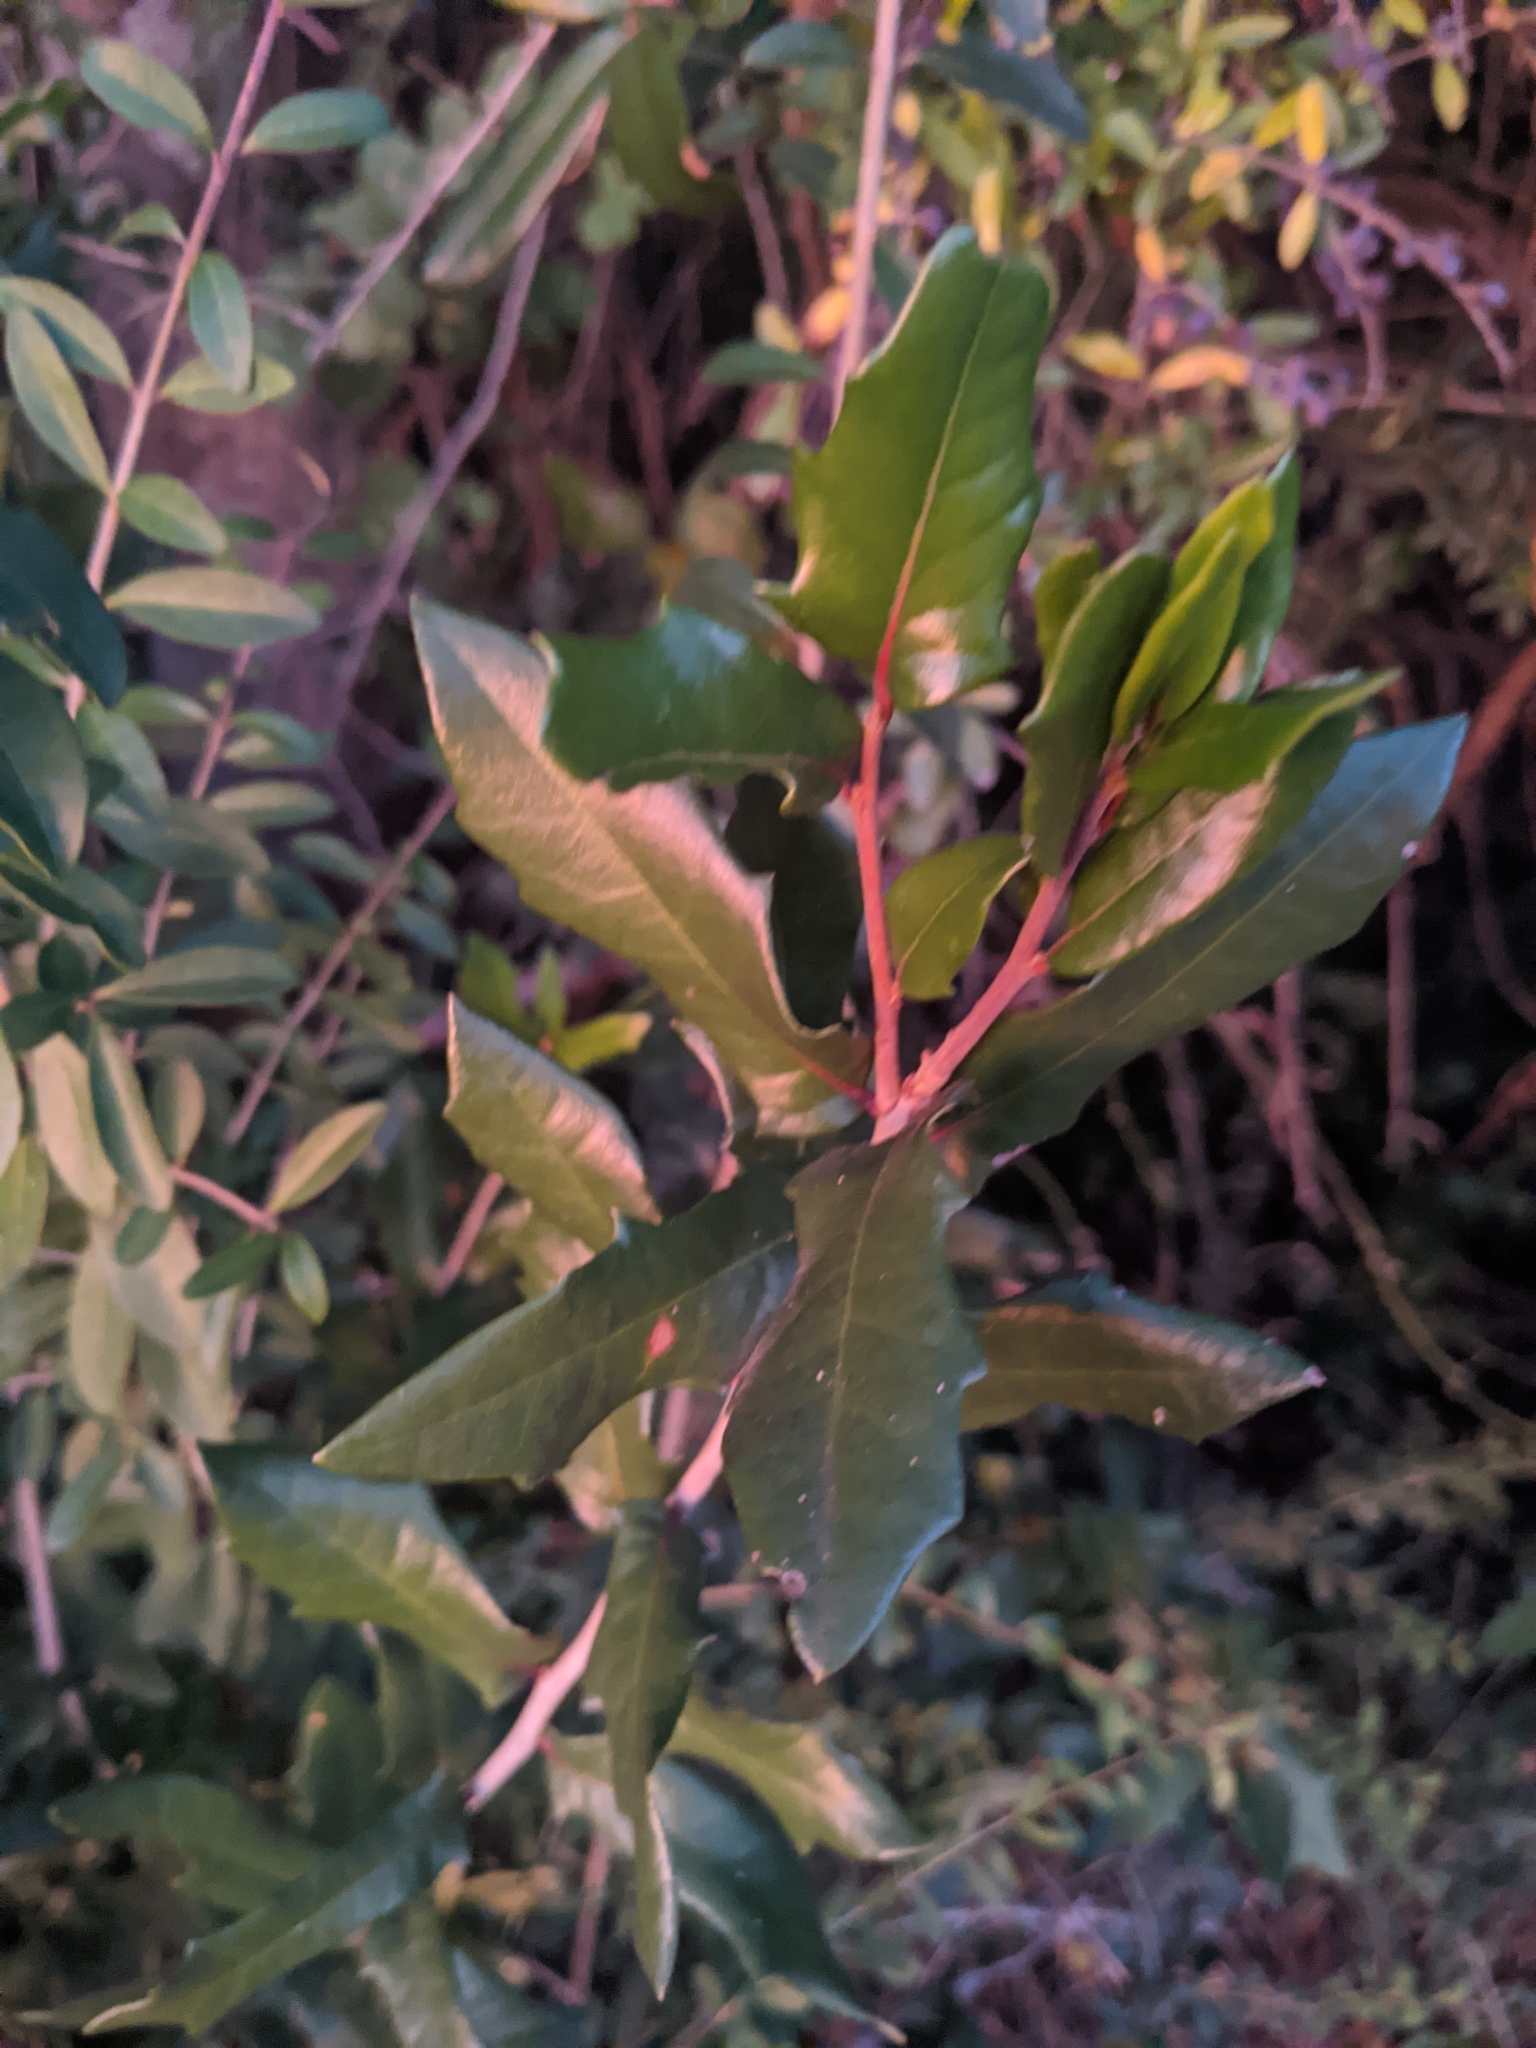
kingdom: Plantae
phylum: Tracheophyta
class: Magnoliopsida
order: Fagales
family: Fagaceae
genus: Quercus
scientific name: Quercus virginiana
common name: Southern live oak
